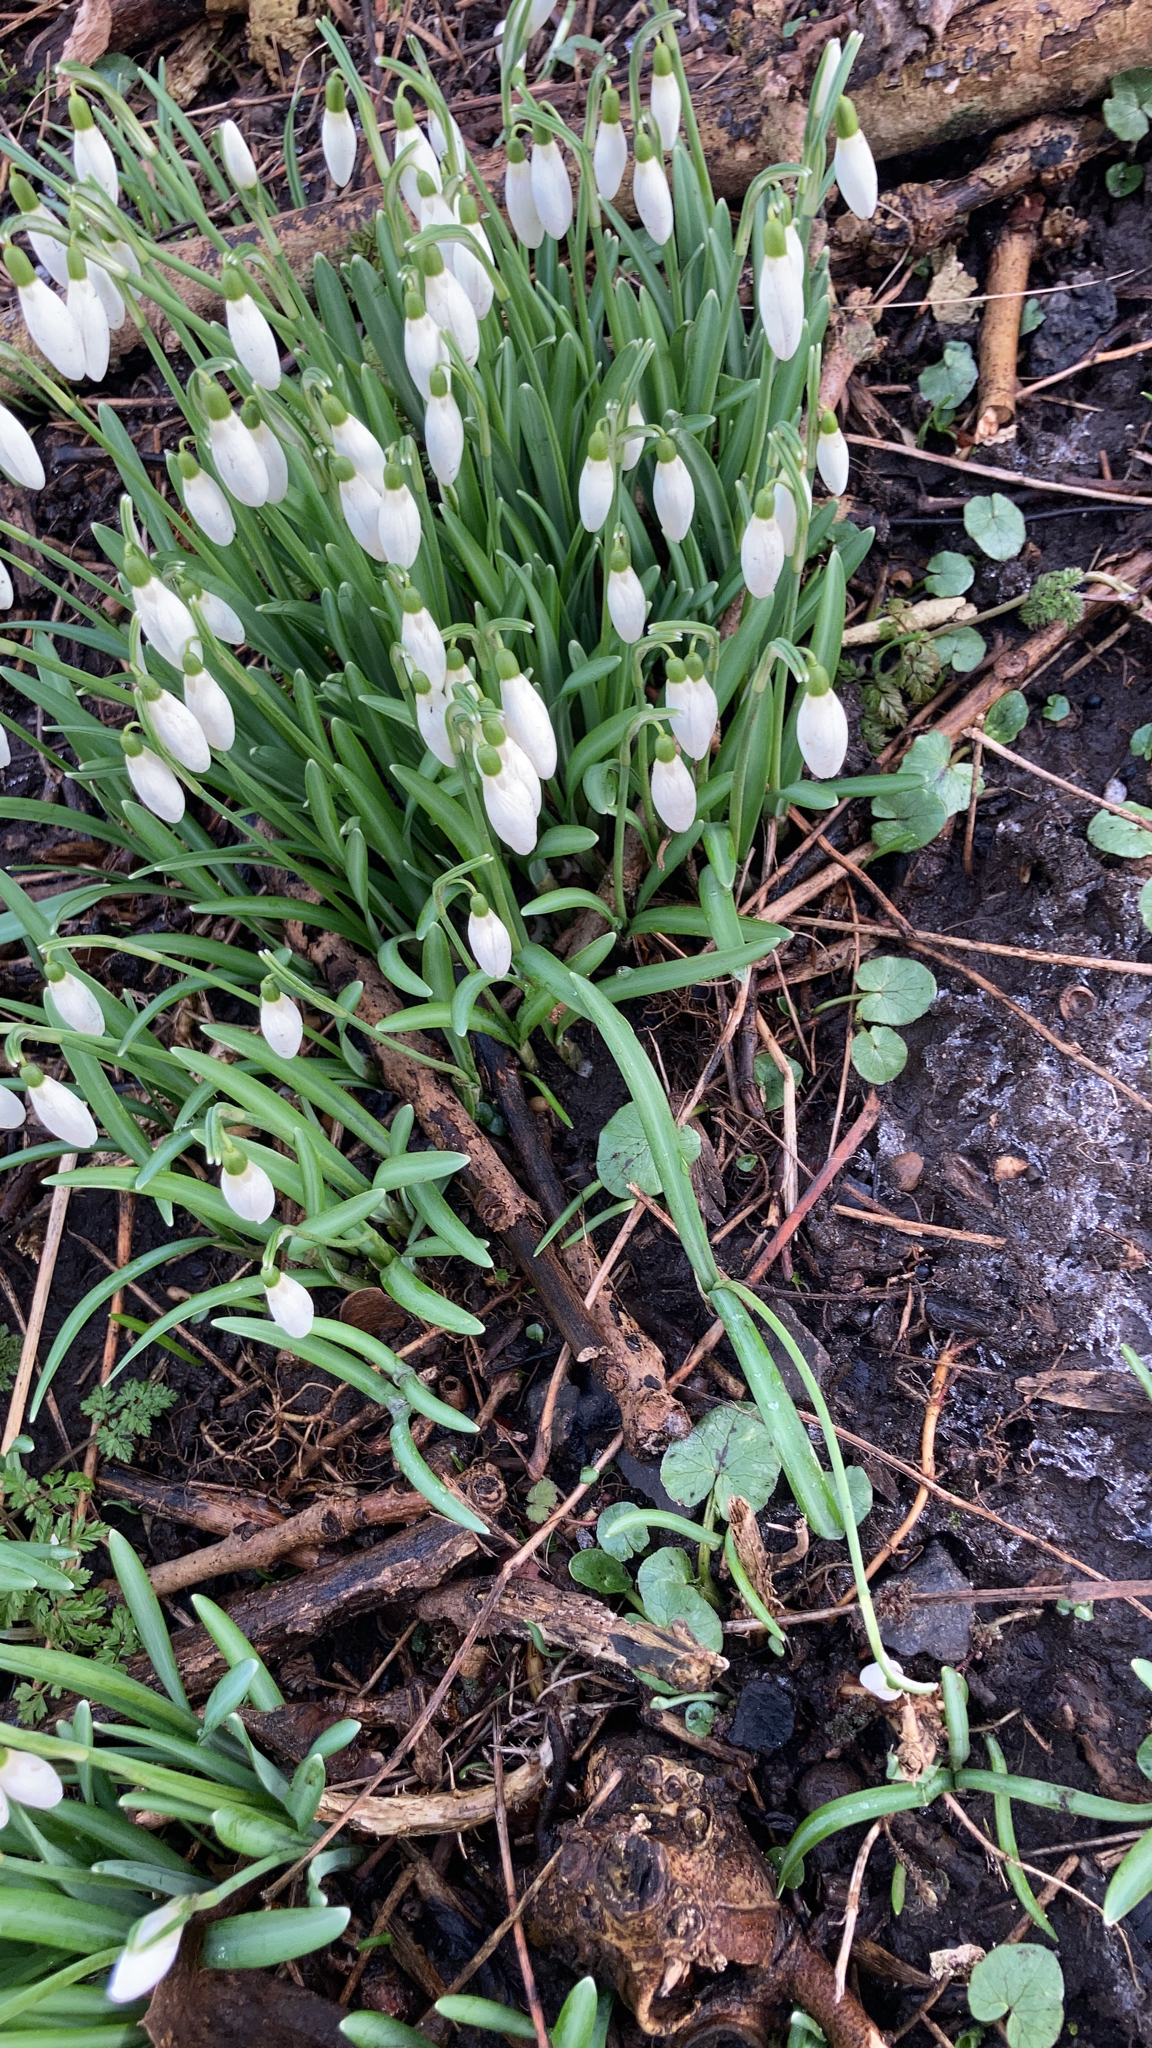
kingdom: Plantae
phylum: Tracheophyta
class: Liliopsida
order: Asparagales
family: Amaryllidaceae
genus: Galanthus
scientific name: Galanthus nivalis
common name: Snowdrop
